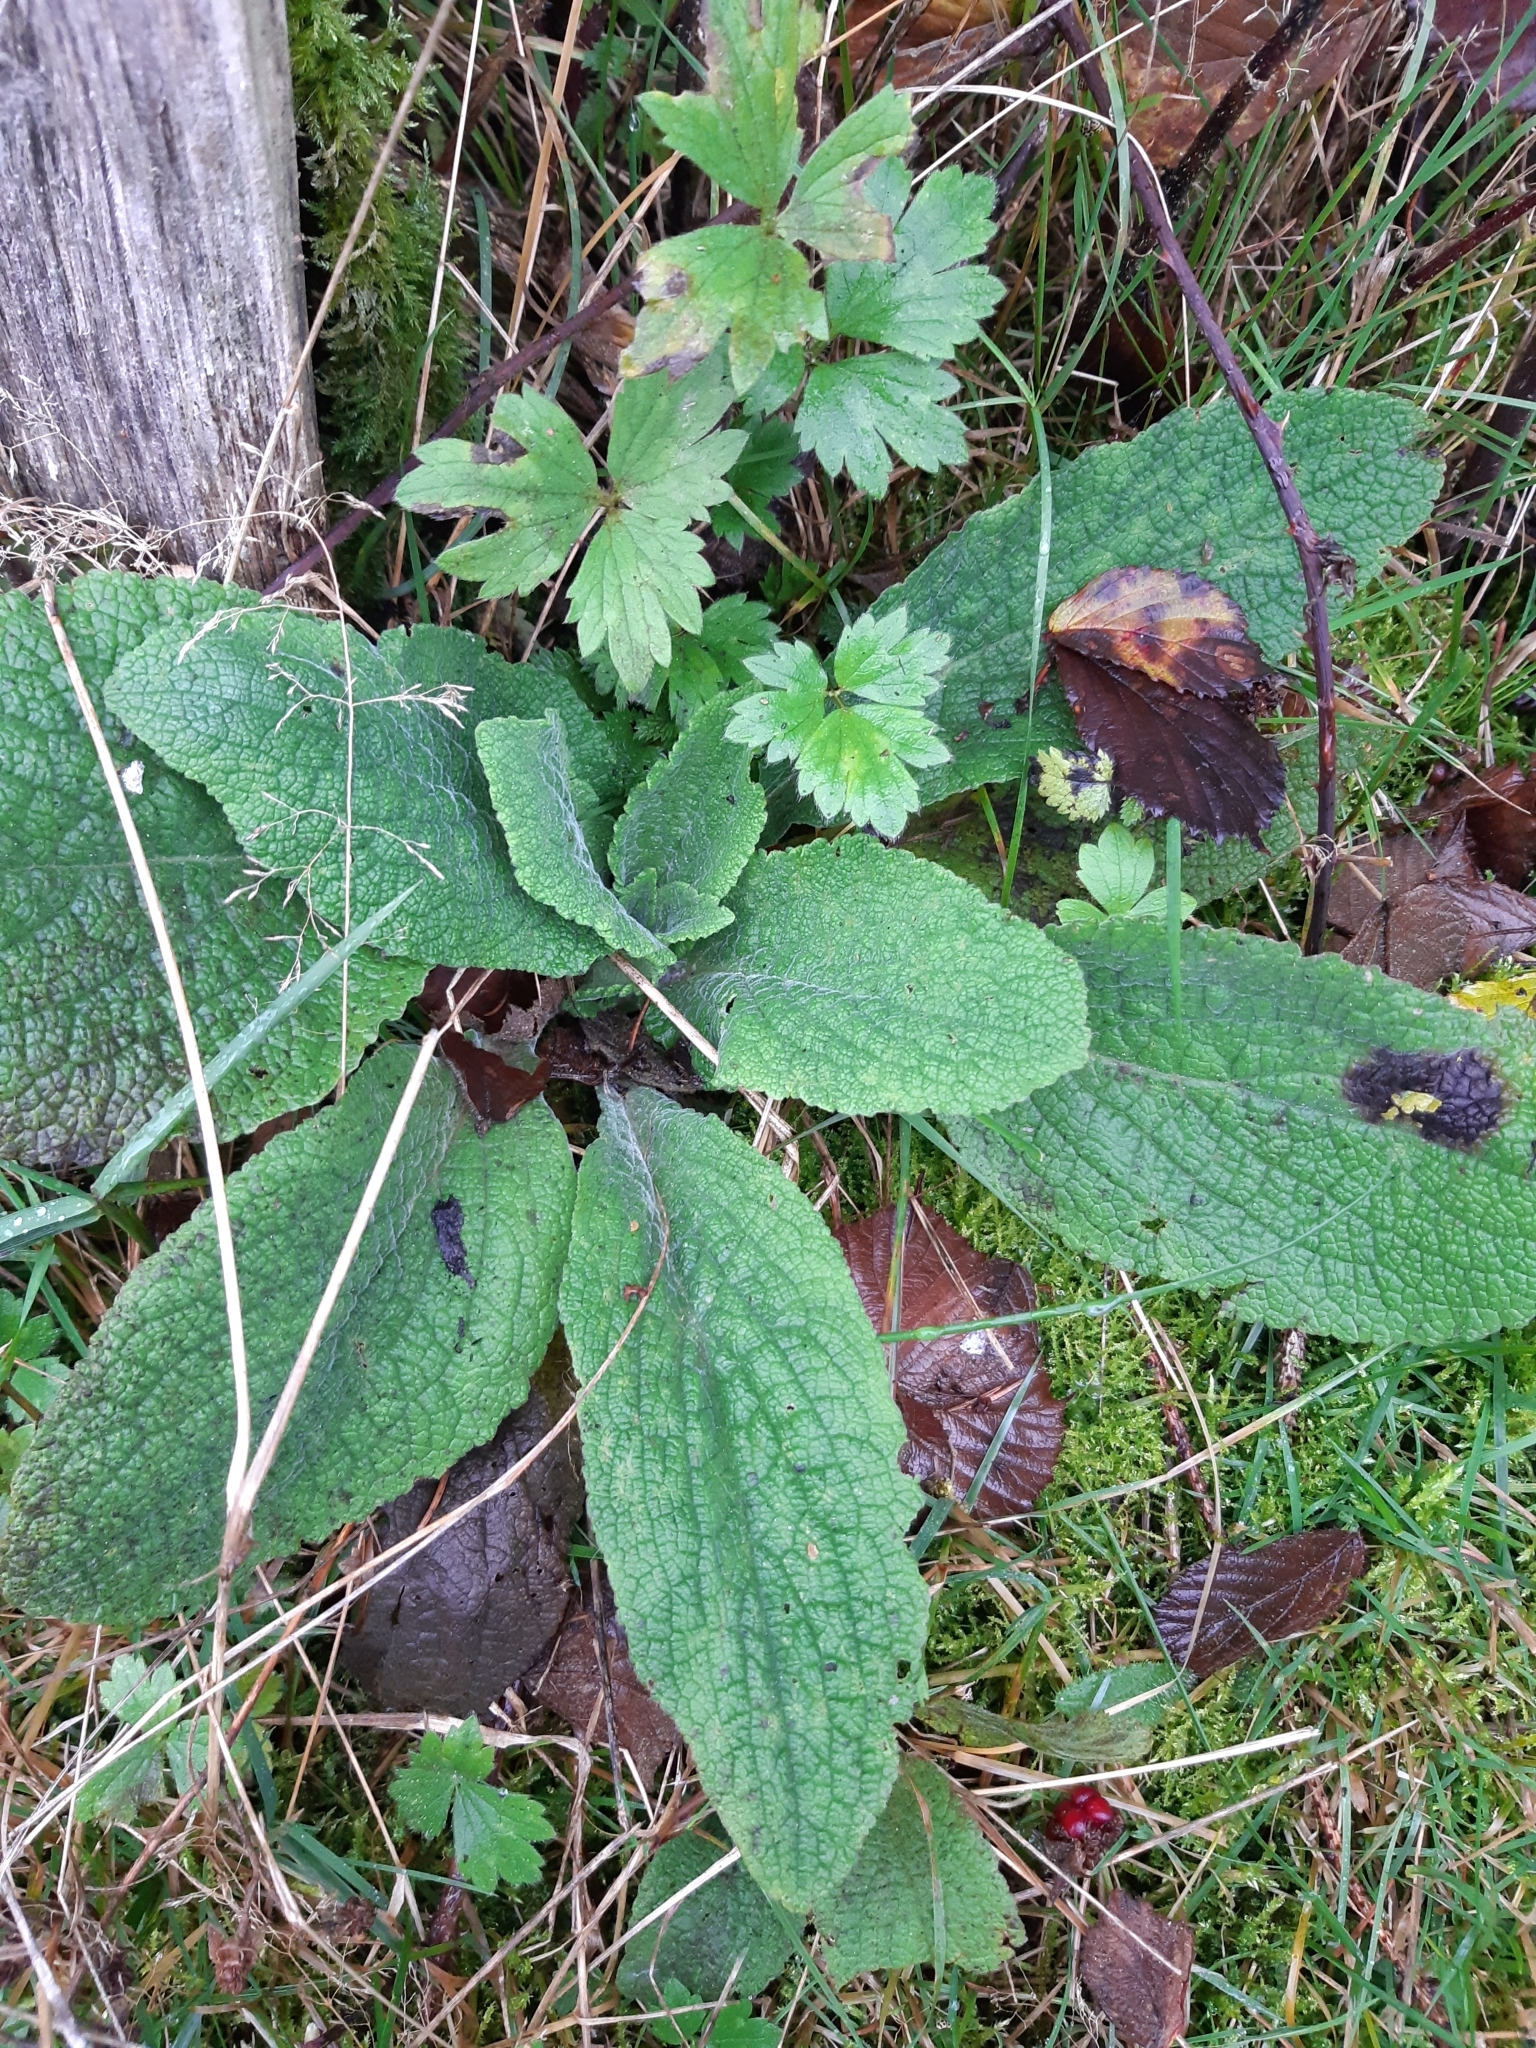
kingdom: Plantae
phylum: Tracheophyta
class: Magnoliopsida
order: Lamiales
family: Plantaginaceae
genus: Digitalis
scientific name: Digitalis purpurea
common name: Foxglove
